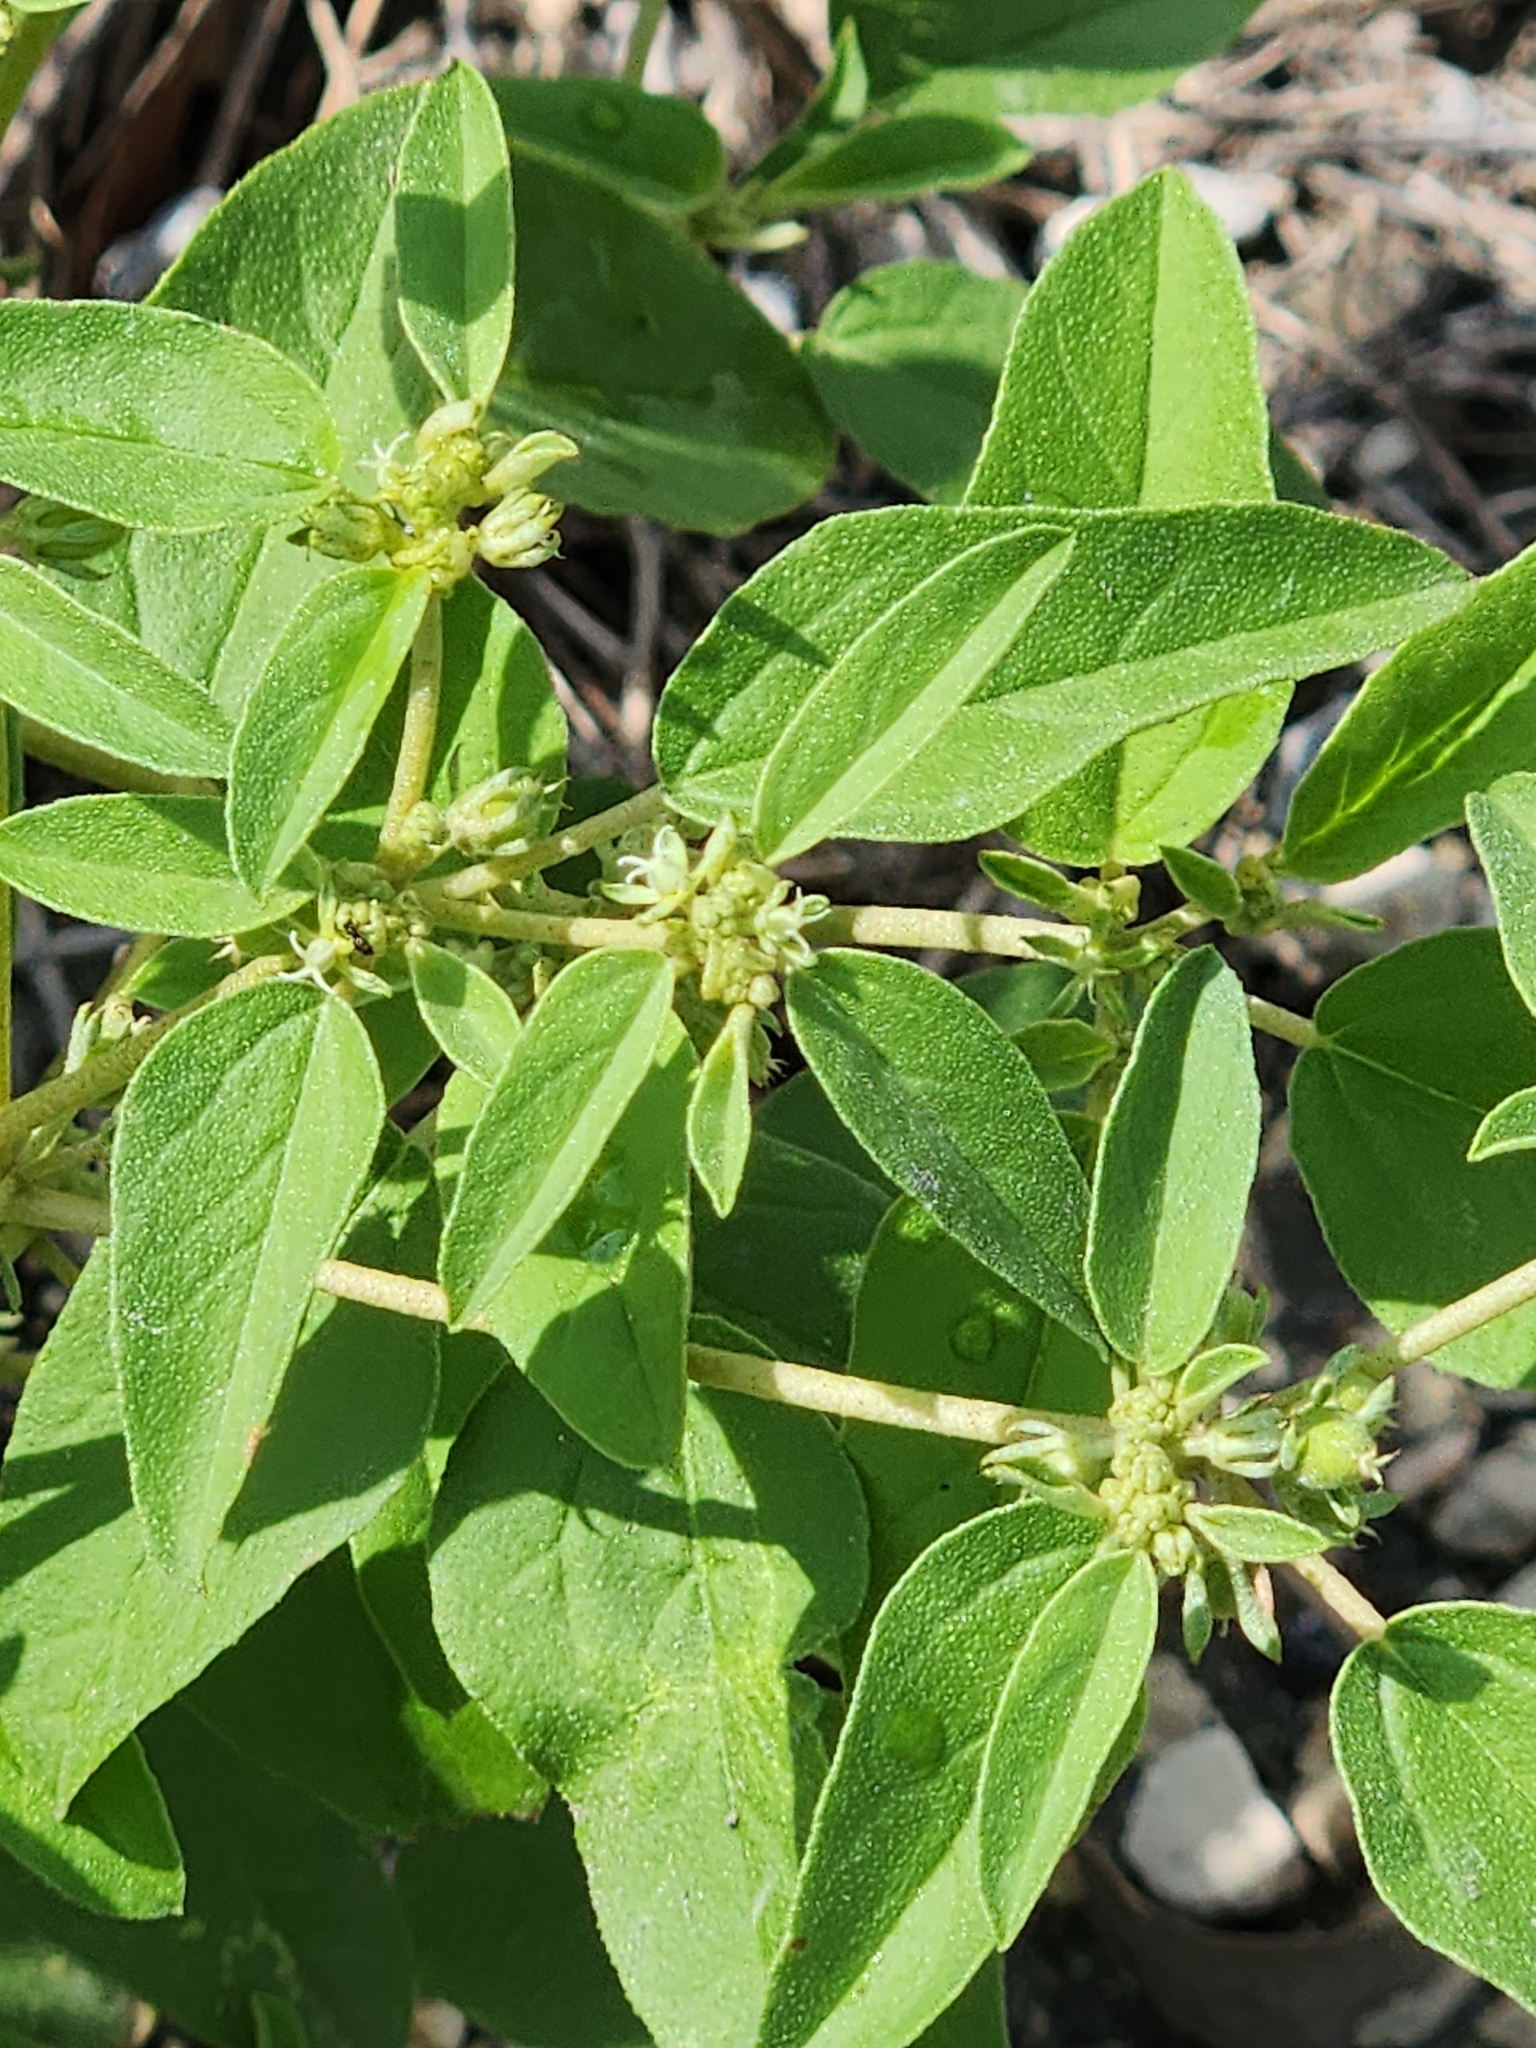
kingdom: Plantae
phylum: Tracheophyta
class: Magnoliopsida
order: Malpighiales
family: Euphorbiaceae
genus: Croton
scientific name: Croton monanthogynus
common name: One-seed croton
